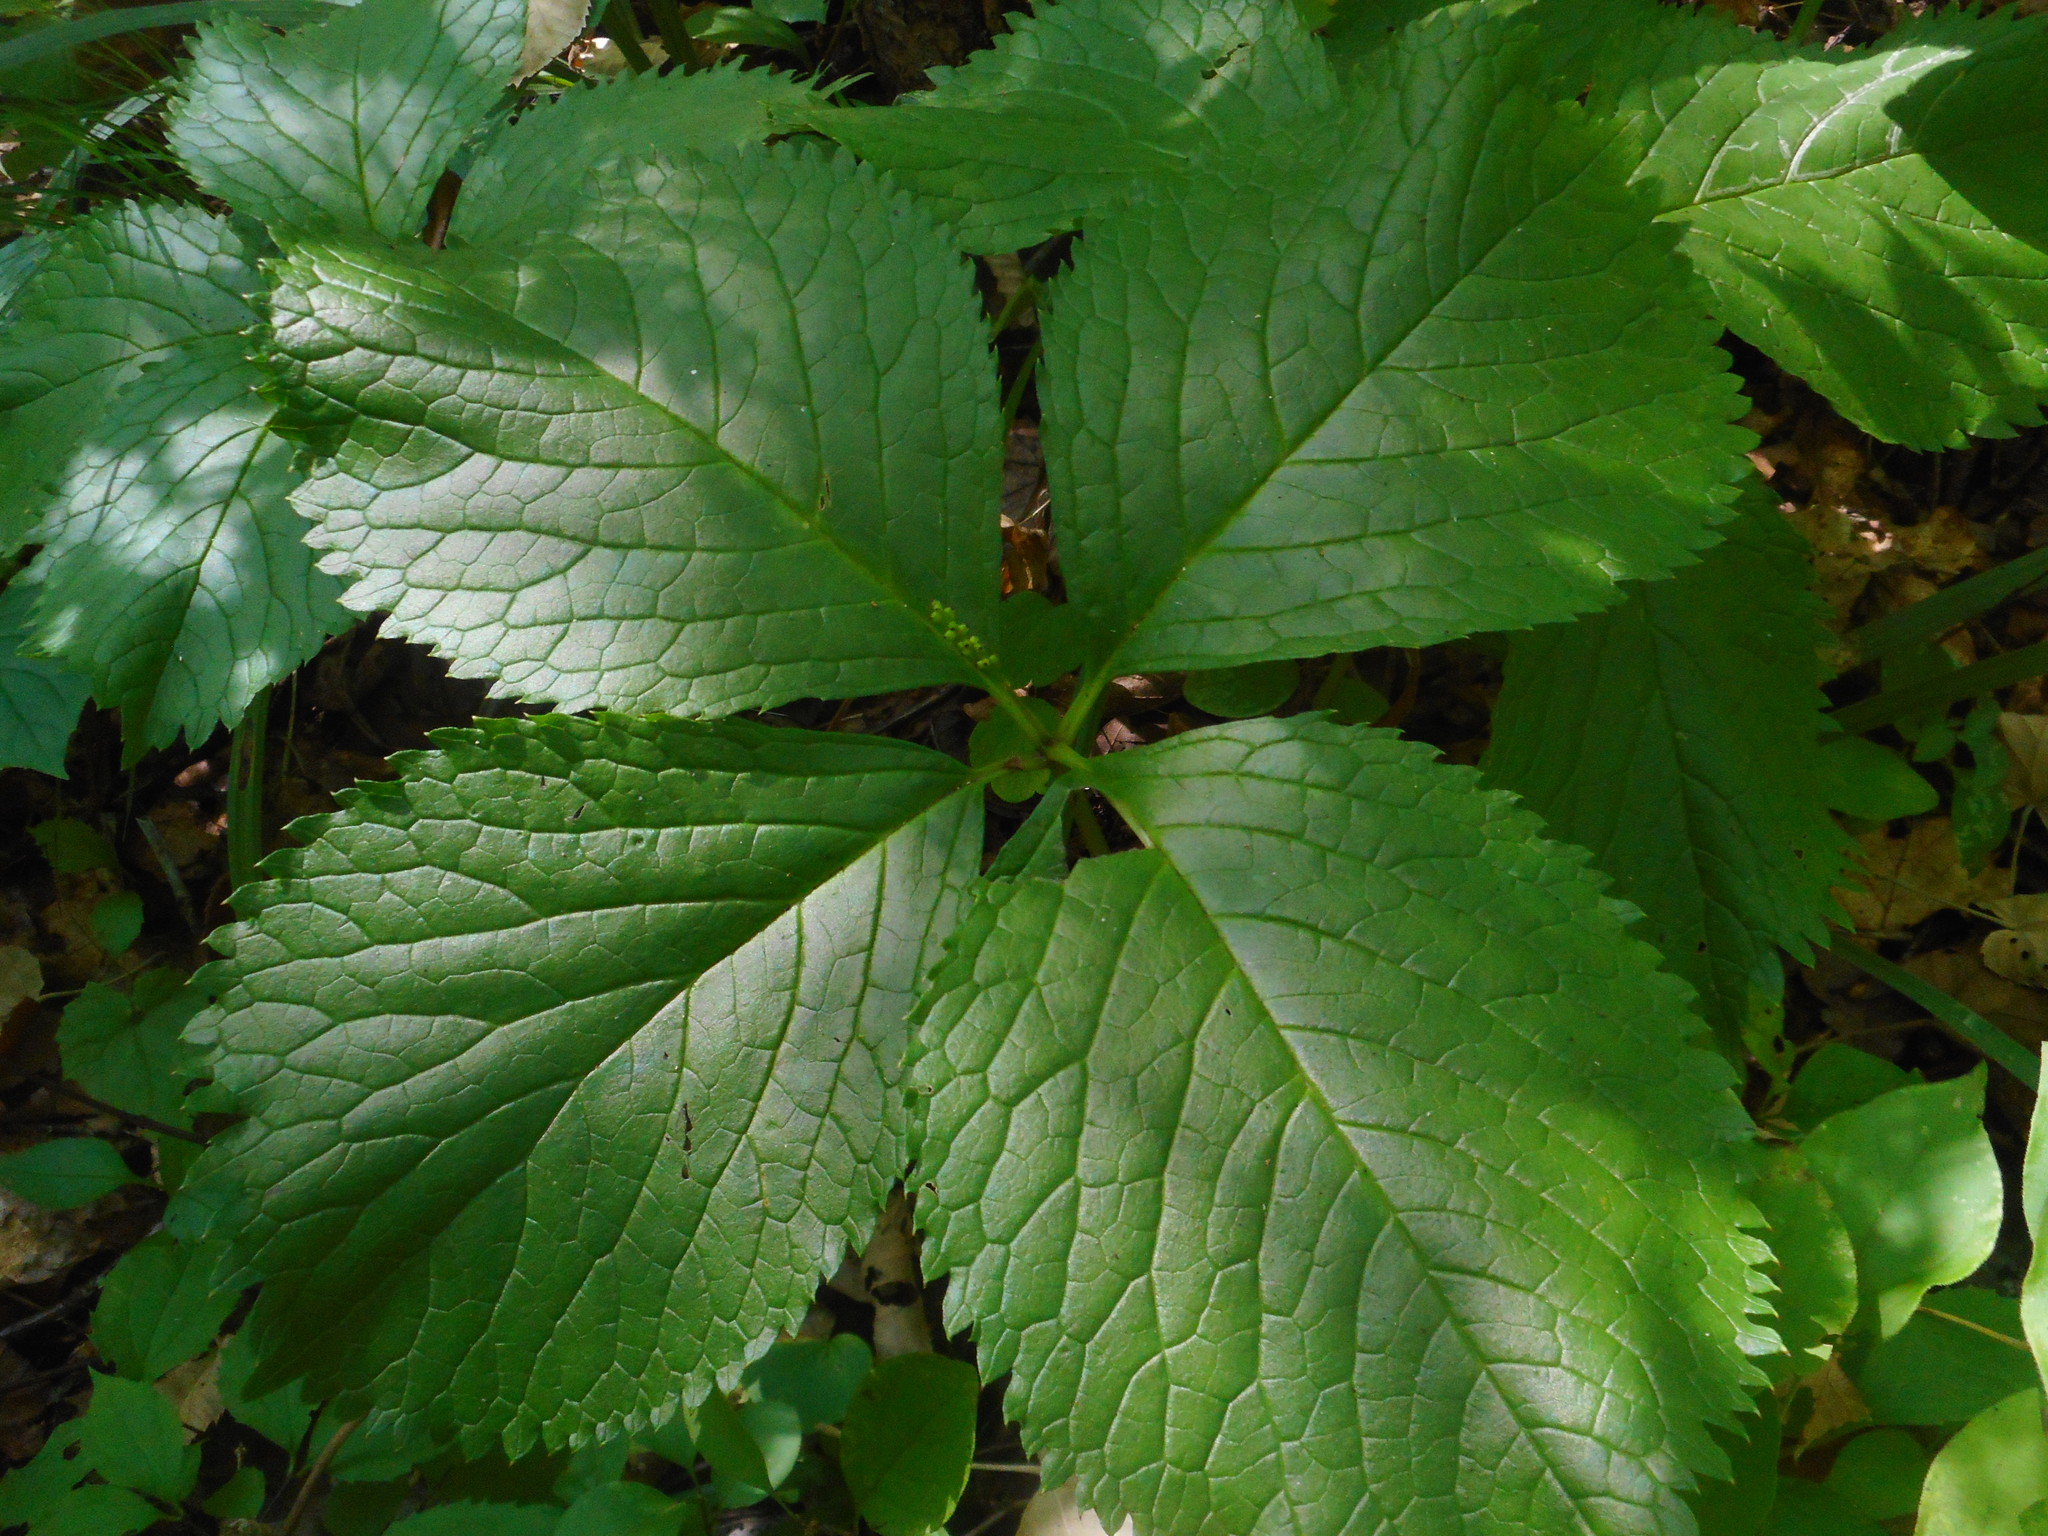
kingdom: Plantae
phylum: Tracheophyta
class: Magnoliopsida
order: Chloranthales
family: Chloranthaceae
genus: Chloranthus
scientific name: Chloranthus quadrifolius
